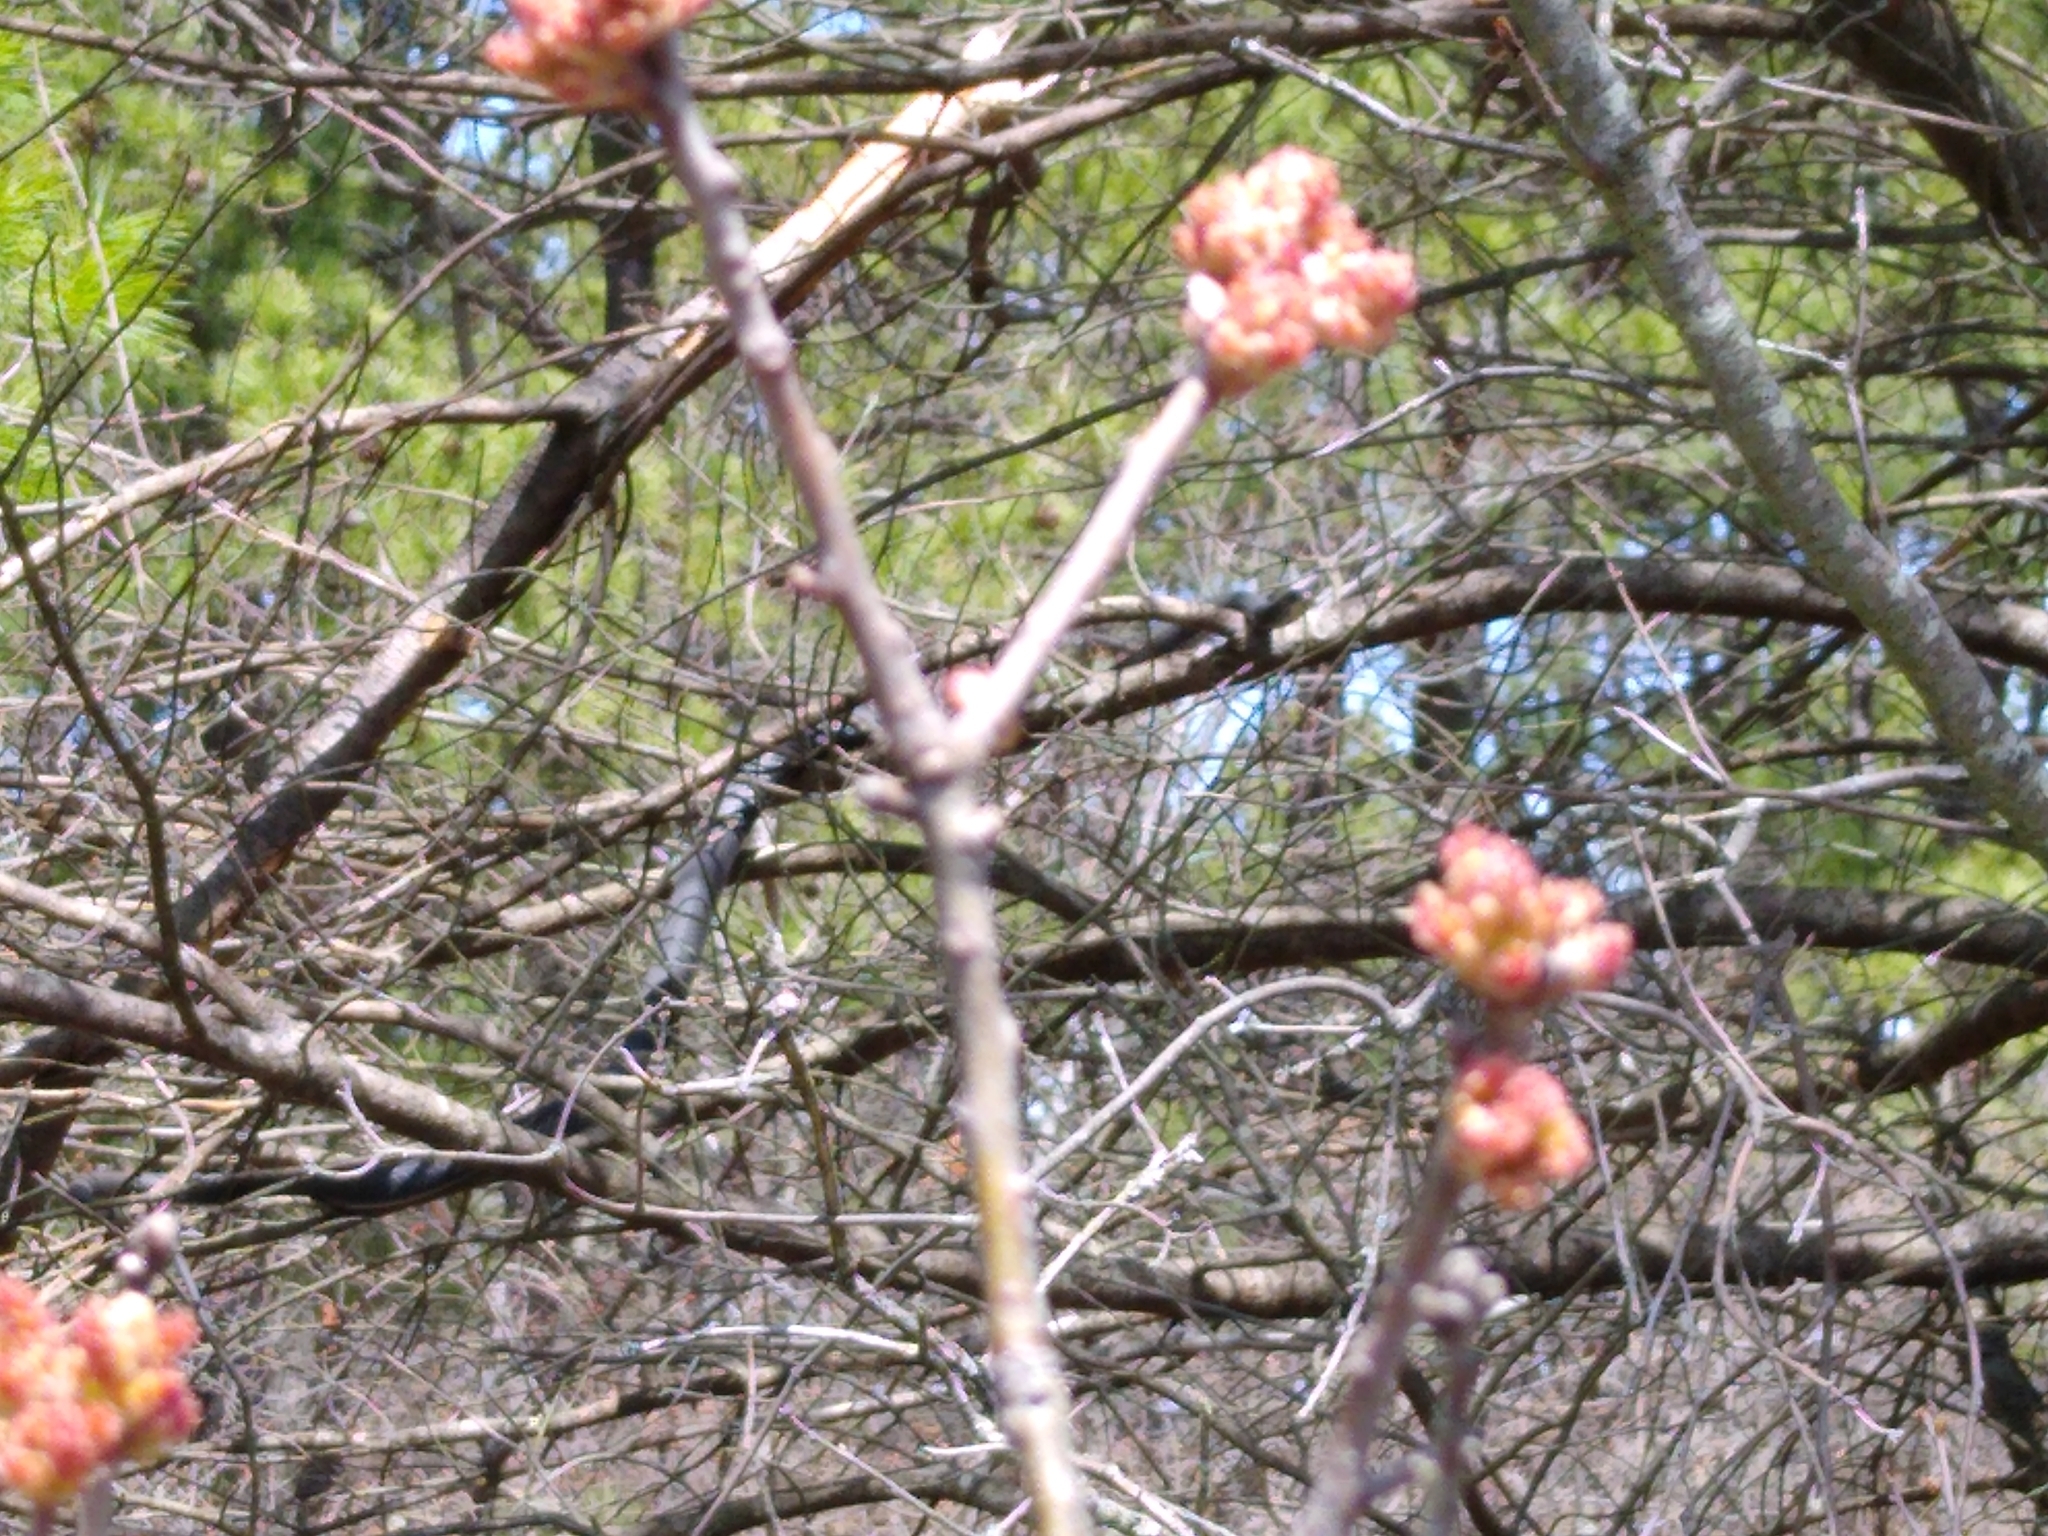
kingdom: Animalia
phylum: Chordata
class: Squamata
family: Colubridae
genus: Coluber
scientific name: Coluber constrictor
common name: Eastern racer
